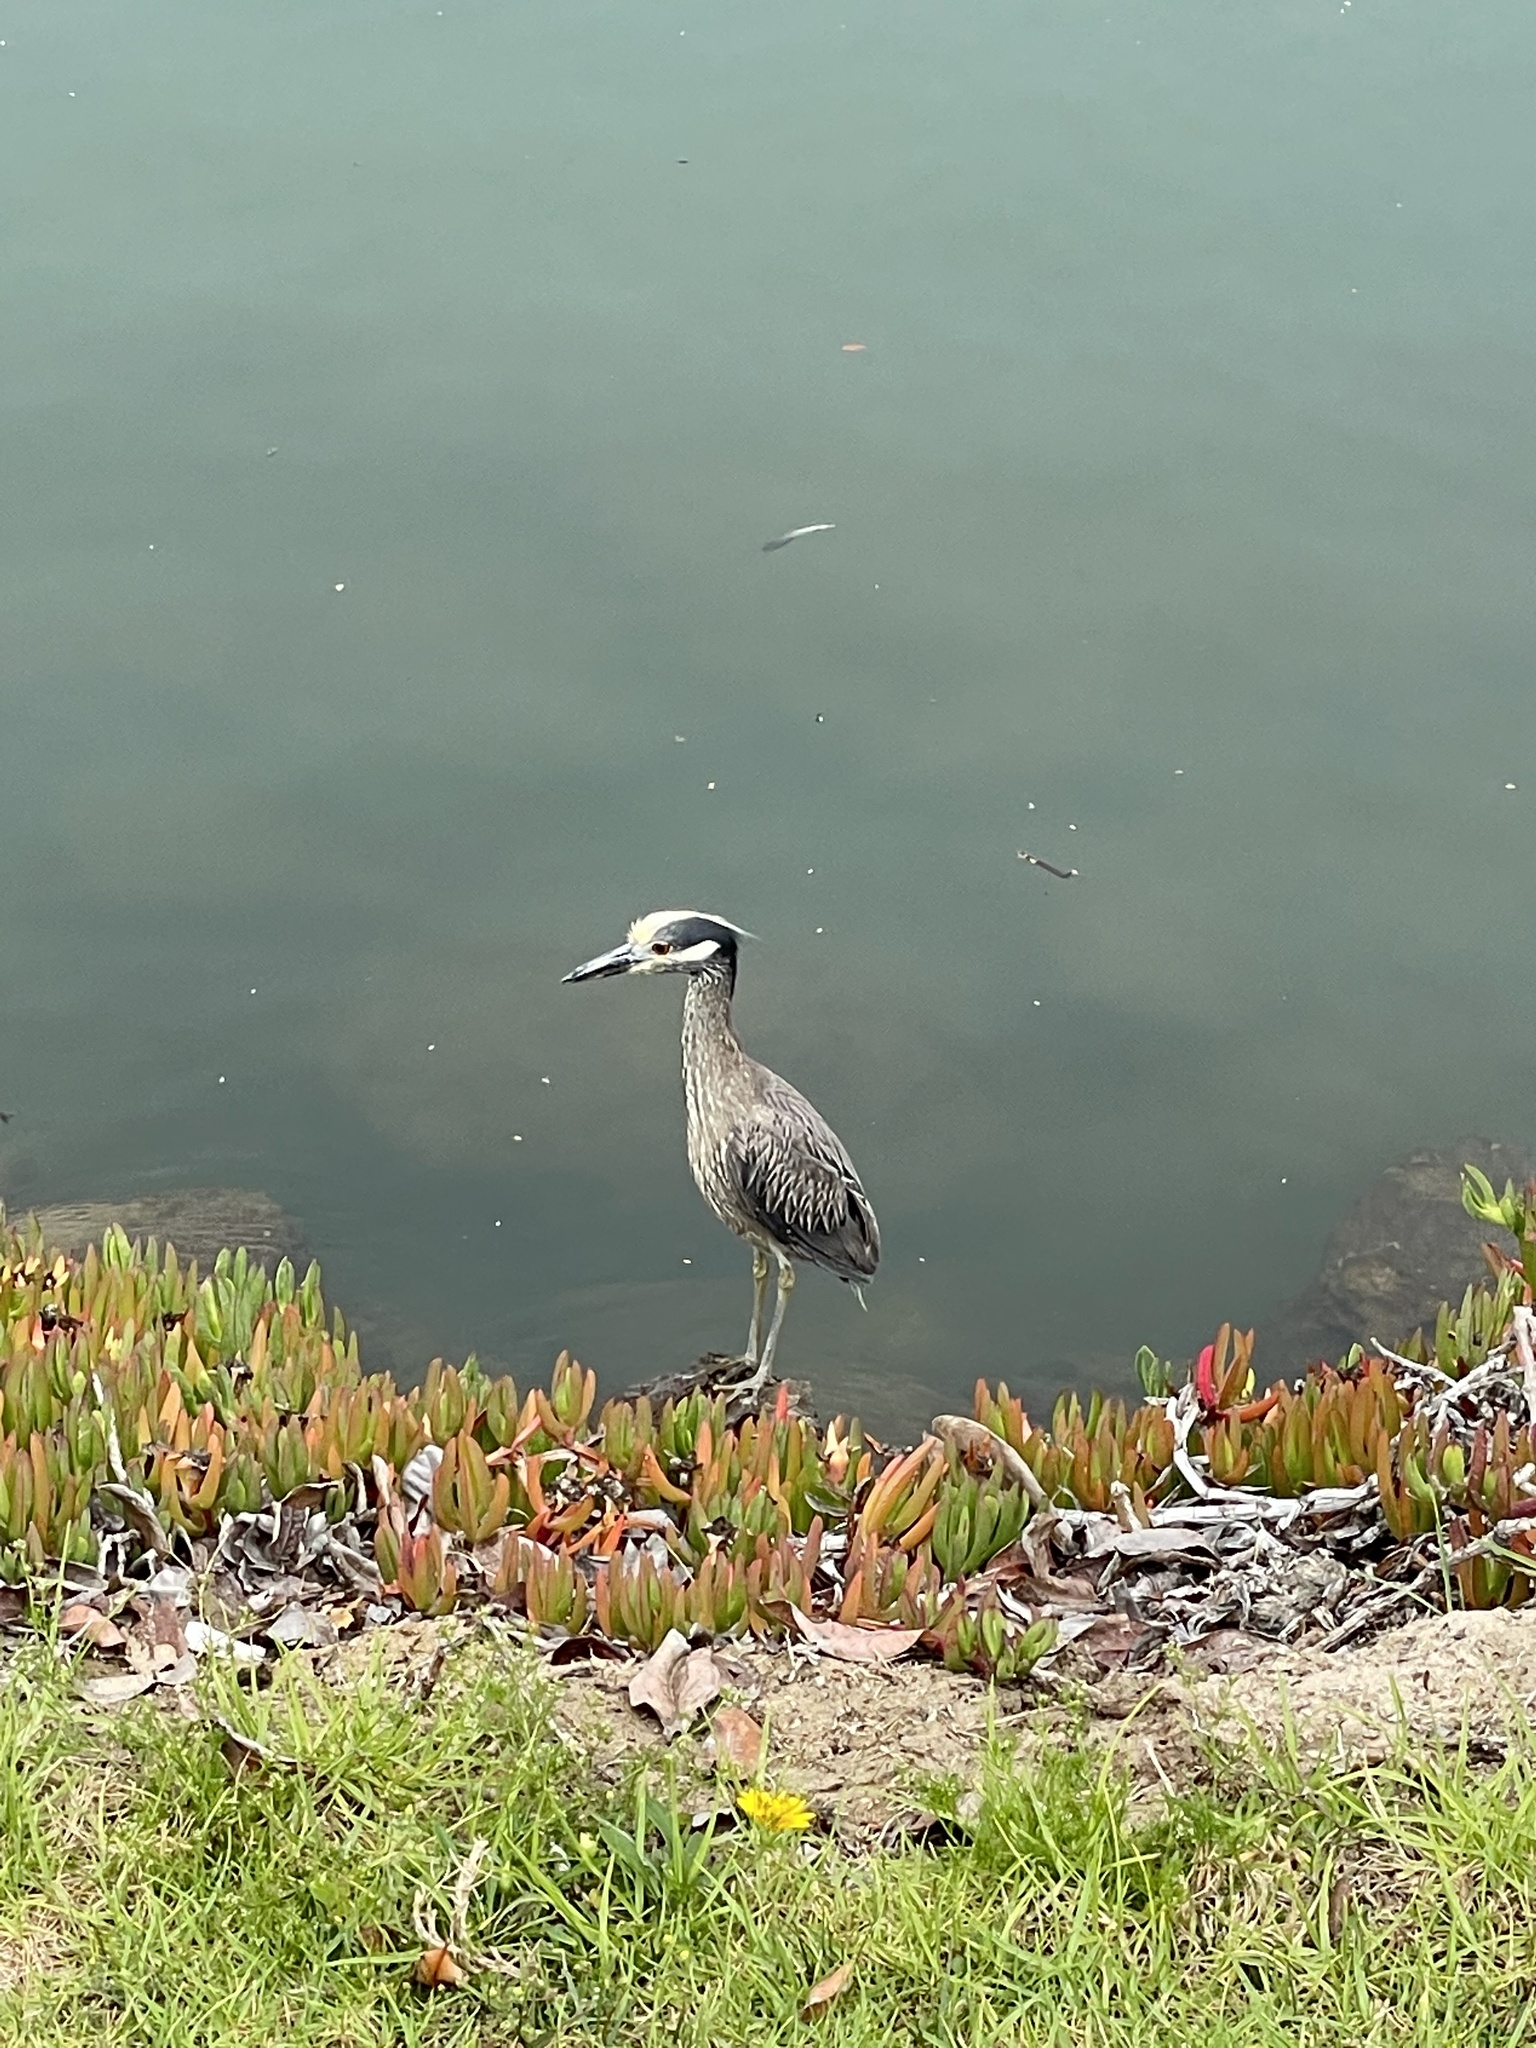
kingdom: Animalia
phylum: Chordata
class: Aves
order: Pelecaniformes
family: Ardeidae
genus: Nyctanassa
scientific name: Nyctanassa violacea
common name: Yellow-crowned night heron
